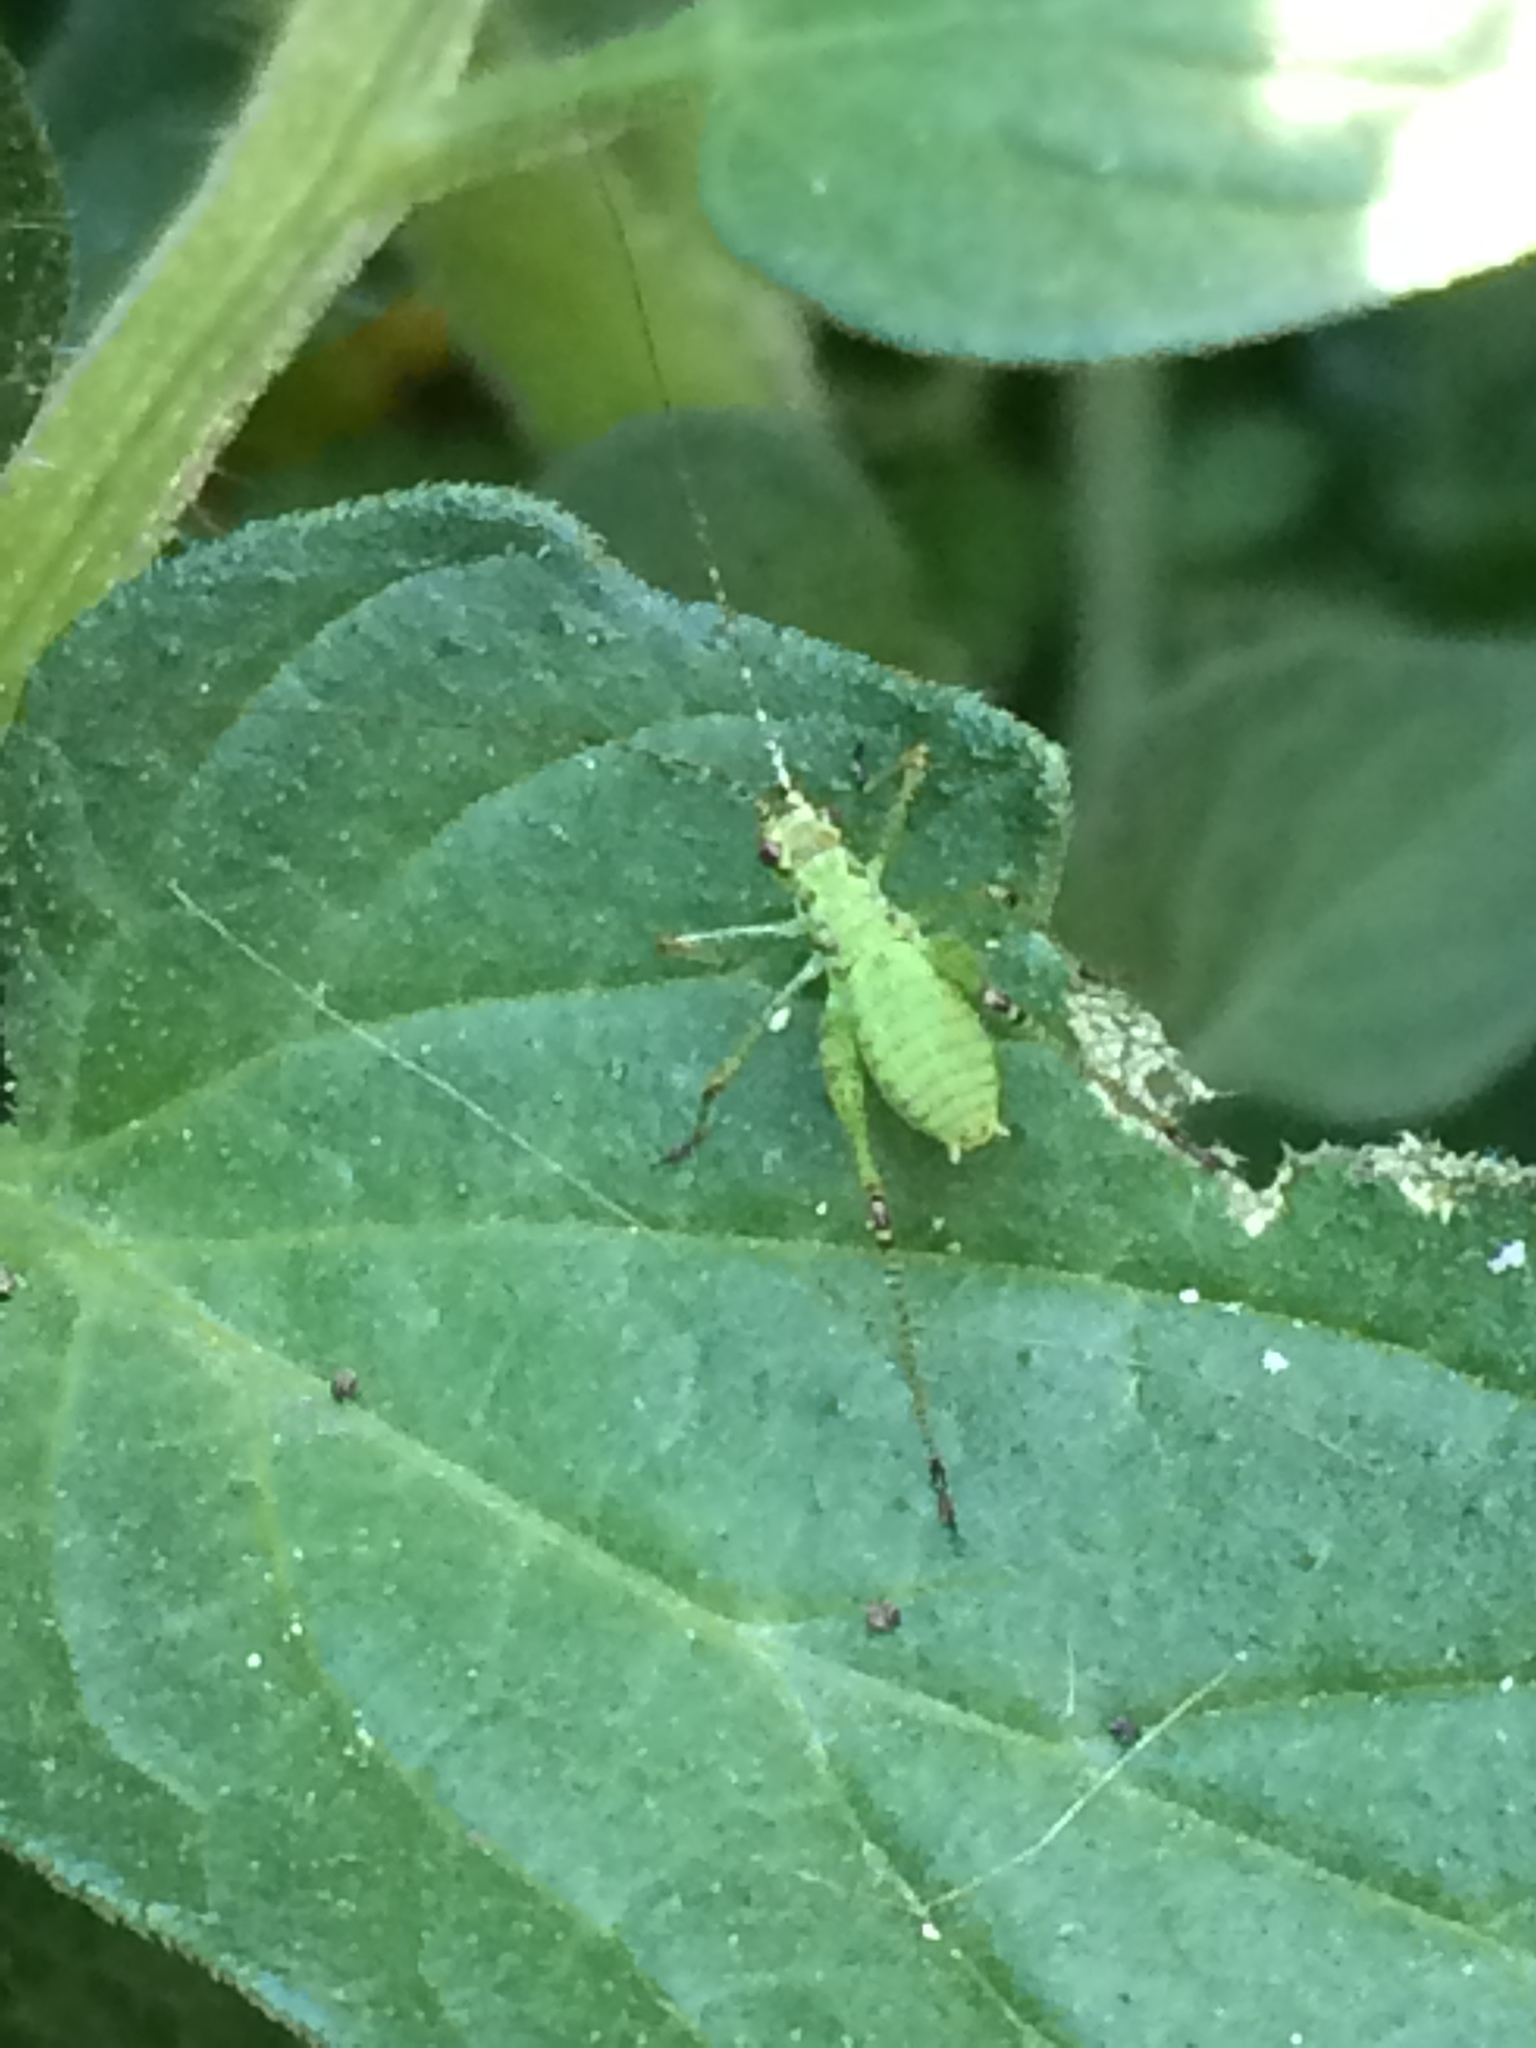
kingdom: Animalia
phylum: Arthropoda
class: Insecta
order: Orthoptera
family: Tettigoniidae
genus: Phaneroptera
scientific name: Phaneroptera nana
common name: Southern sickle bush-cricket
